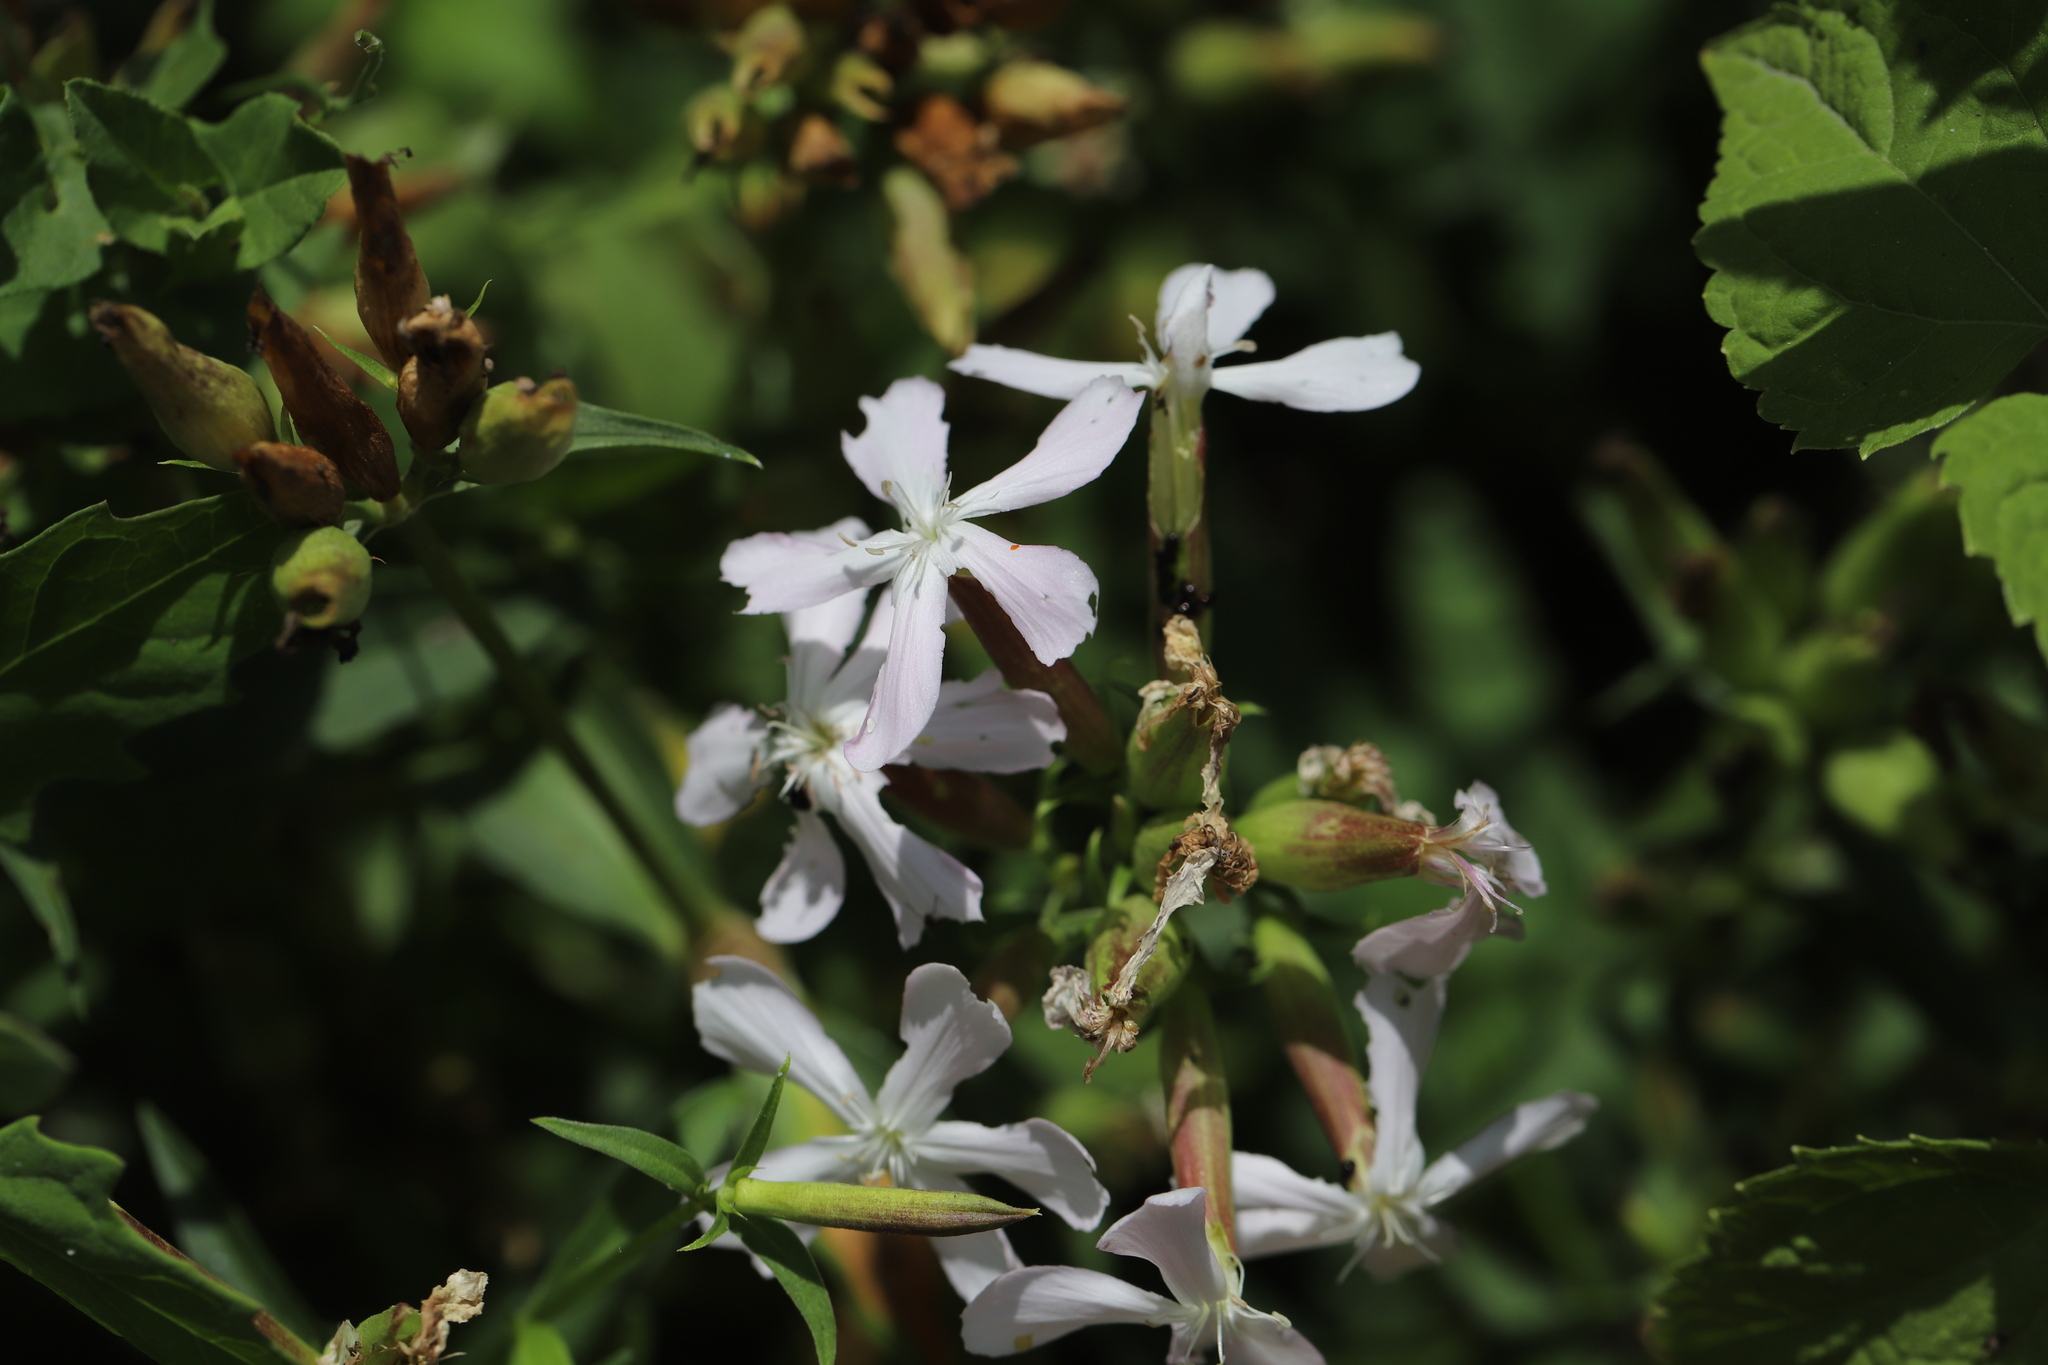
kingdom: Plantae
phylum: Tracheophyta
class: Magnoliopsida
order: Caryophyllales
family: Caryophyllaceae
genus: Saponaria
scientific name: Saponaria officinalis
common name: Soapwort
